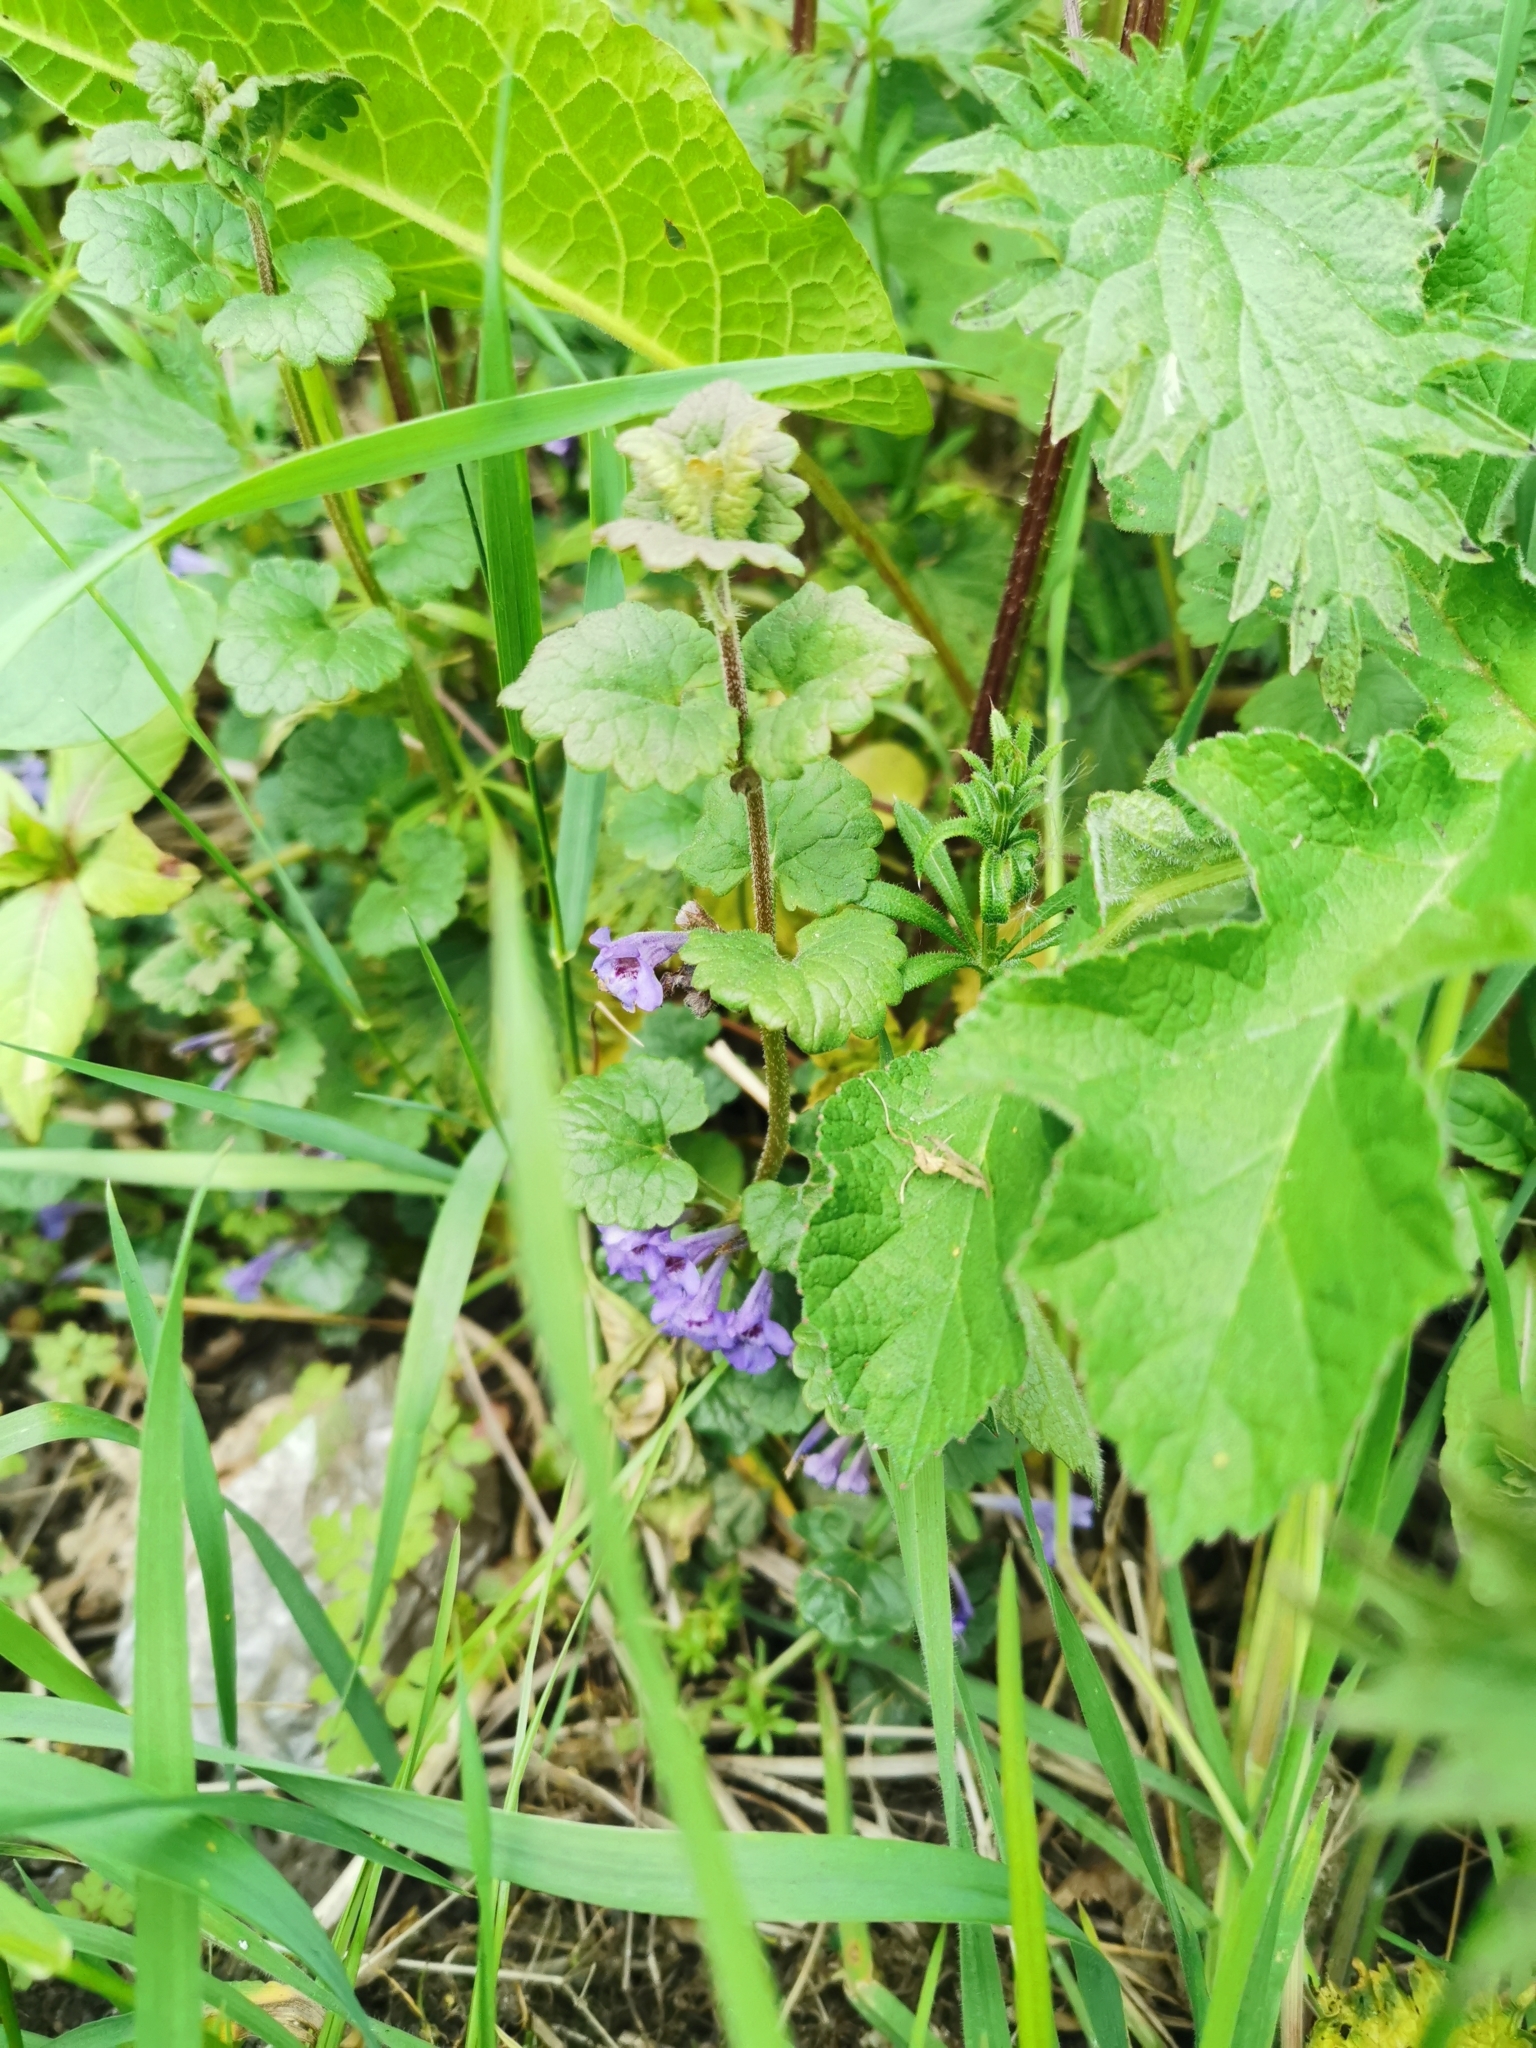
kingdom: Plantae
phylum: Tracheophyta
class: Magnoliopsida
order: Lamiales
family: Lamiaceae
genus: Glechoma
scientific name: Glechoma hederacea
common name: Ground ivy
